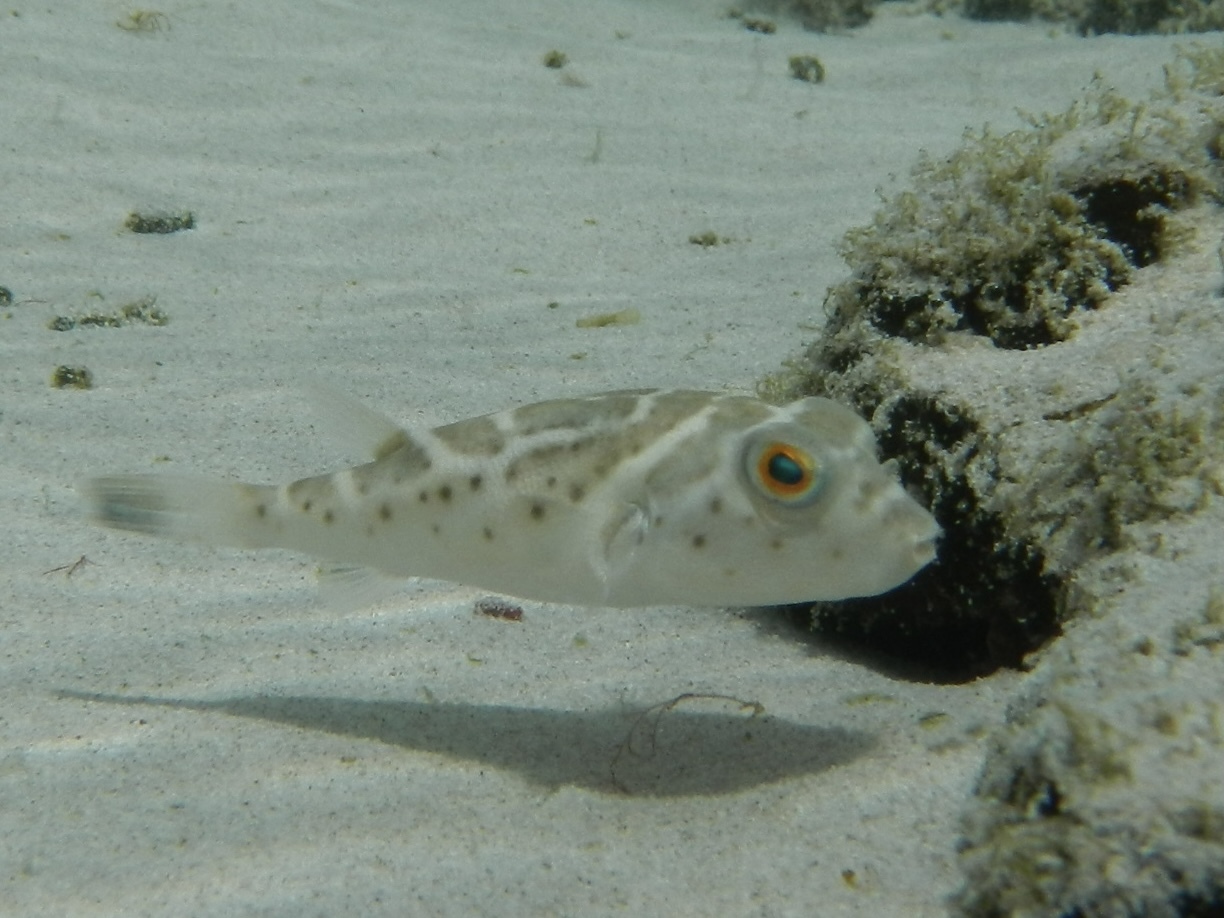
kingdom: Animalia
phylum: Chordata
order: Tetraodontiformes
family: Tetraodontidae
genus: Sphoeroides
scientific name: Sphoeroides annulatus
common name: Bullseye puffer
